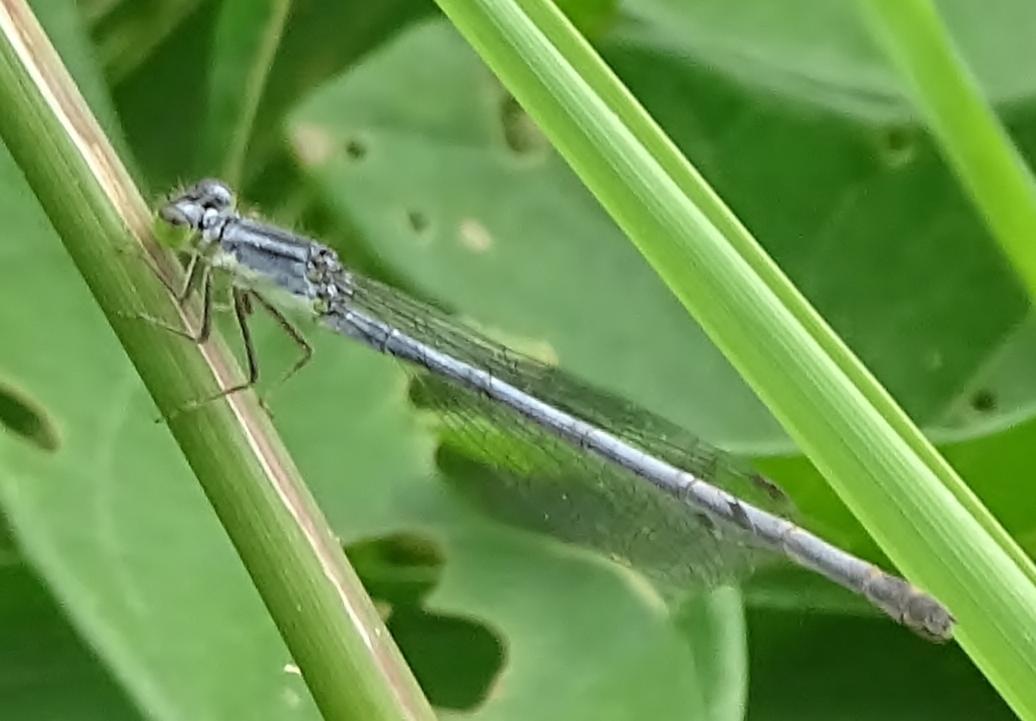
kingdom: Animalia
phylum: Arthropoda
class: Insecta
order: Odonata
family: Coenagrionidae
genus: Ischnura
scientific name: Ischnura verticalis
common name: Eastern forktail
